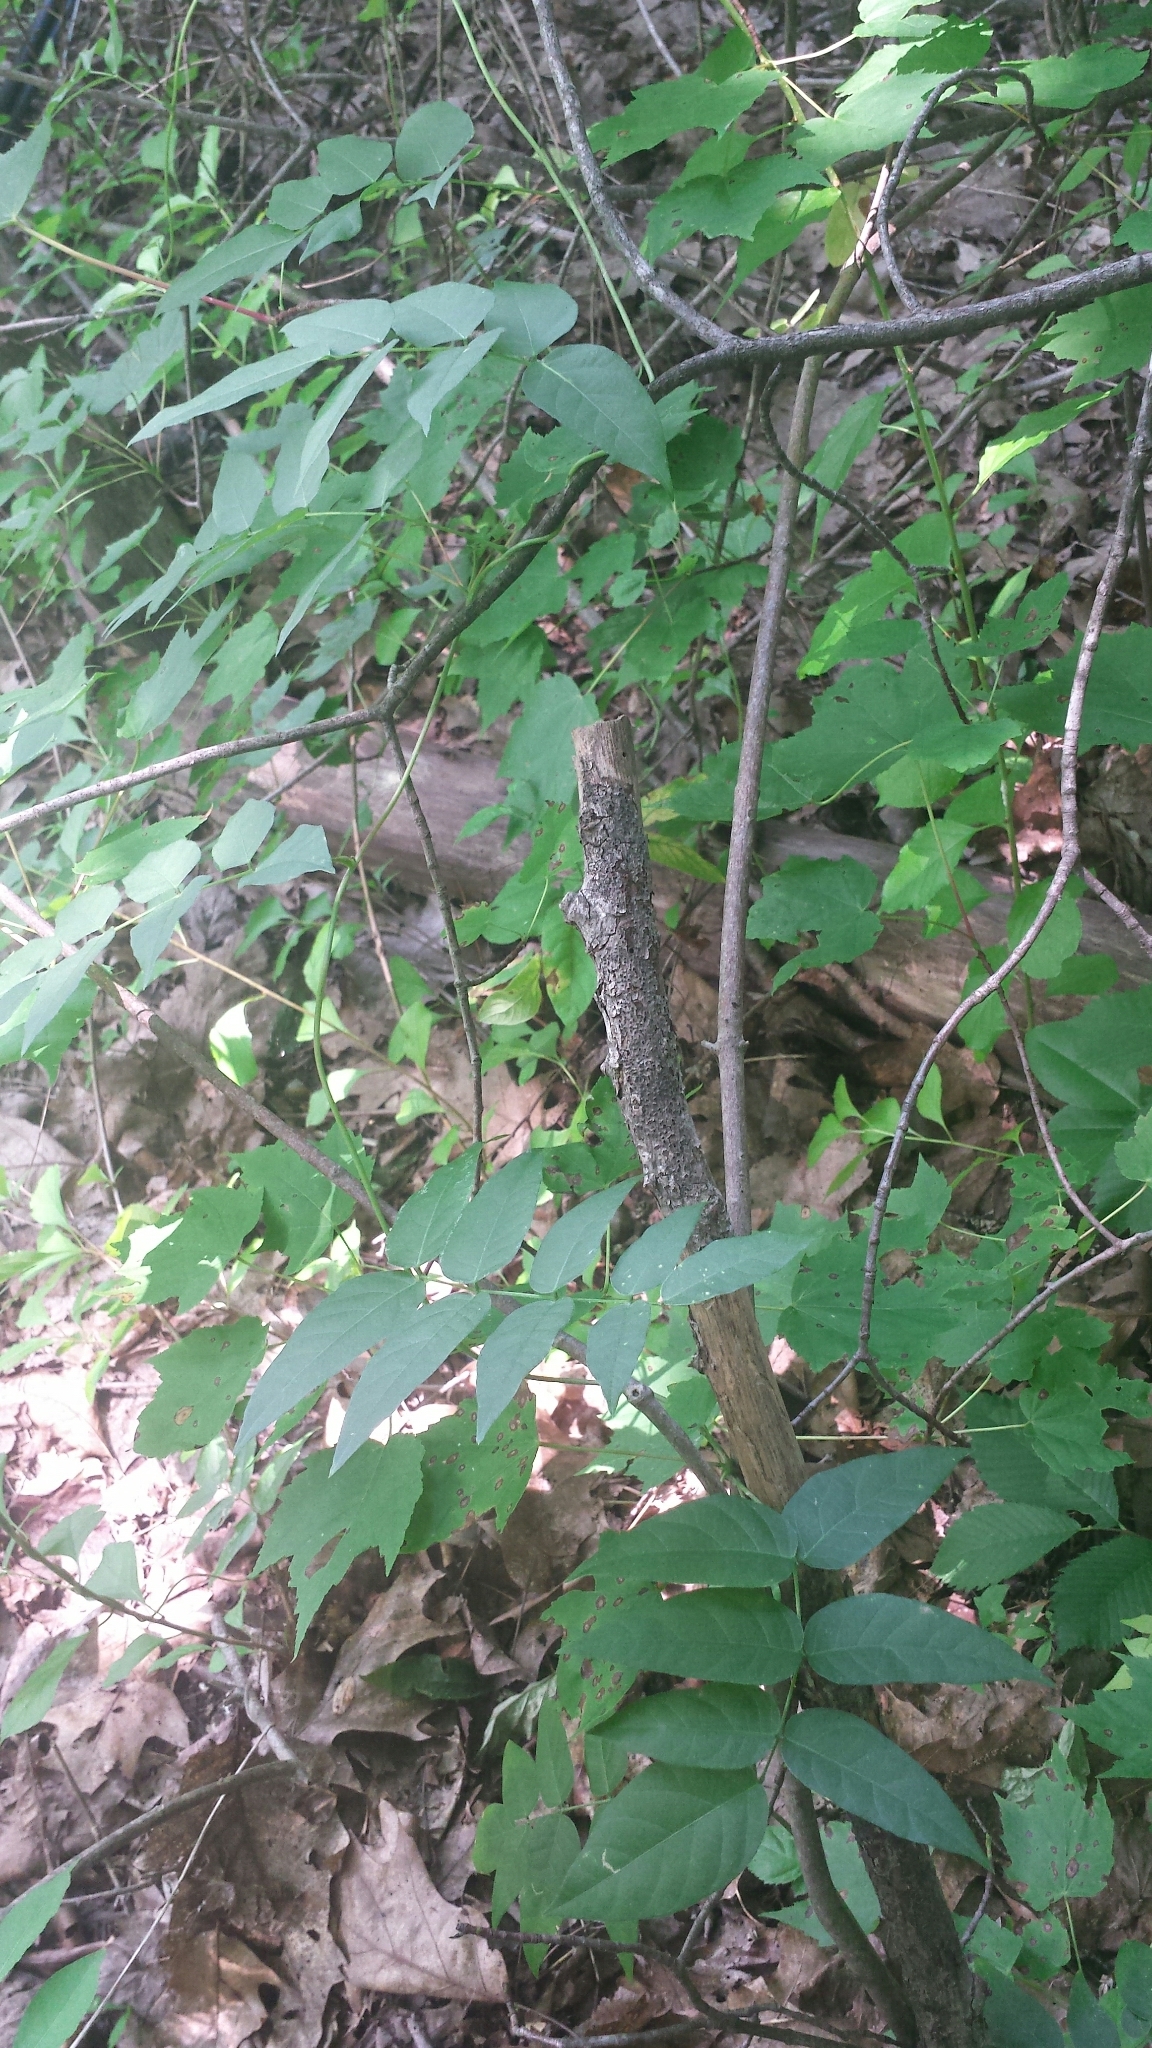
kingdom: Plantae
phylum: Tracheophyta
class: Magnoliopsida
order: Fabales
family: Fabaceae
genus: Apios
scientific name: Apios americana
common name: American potato-bean
